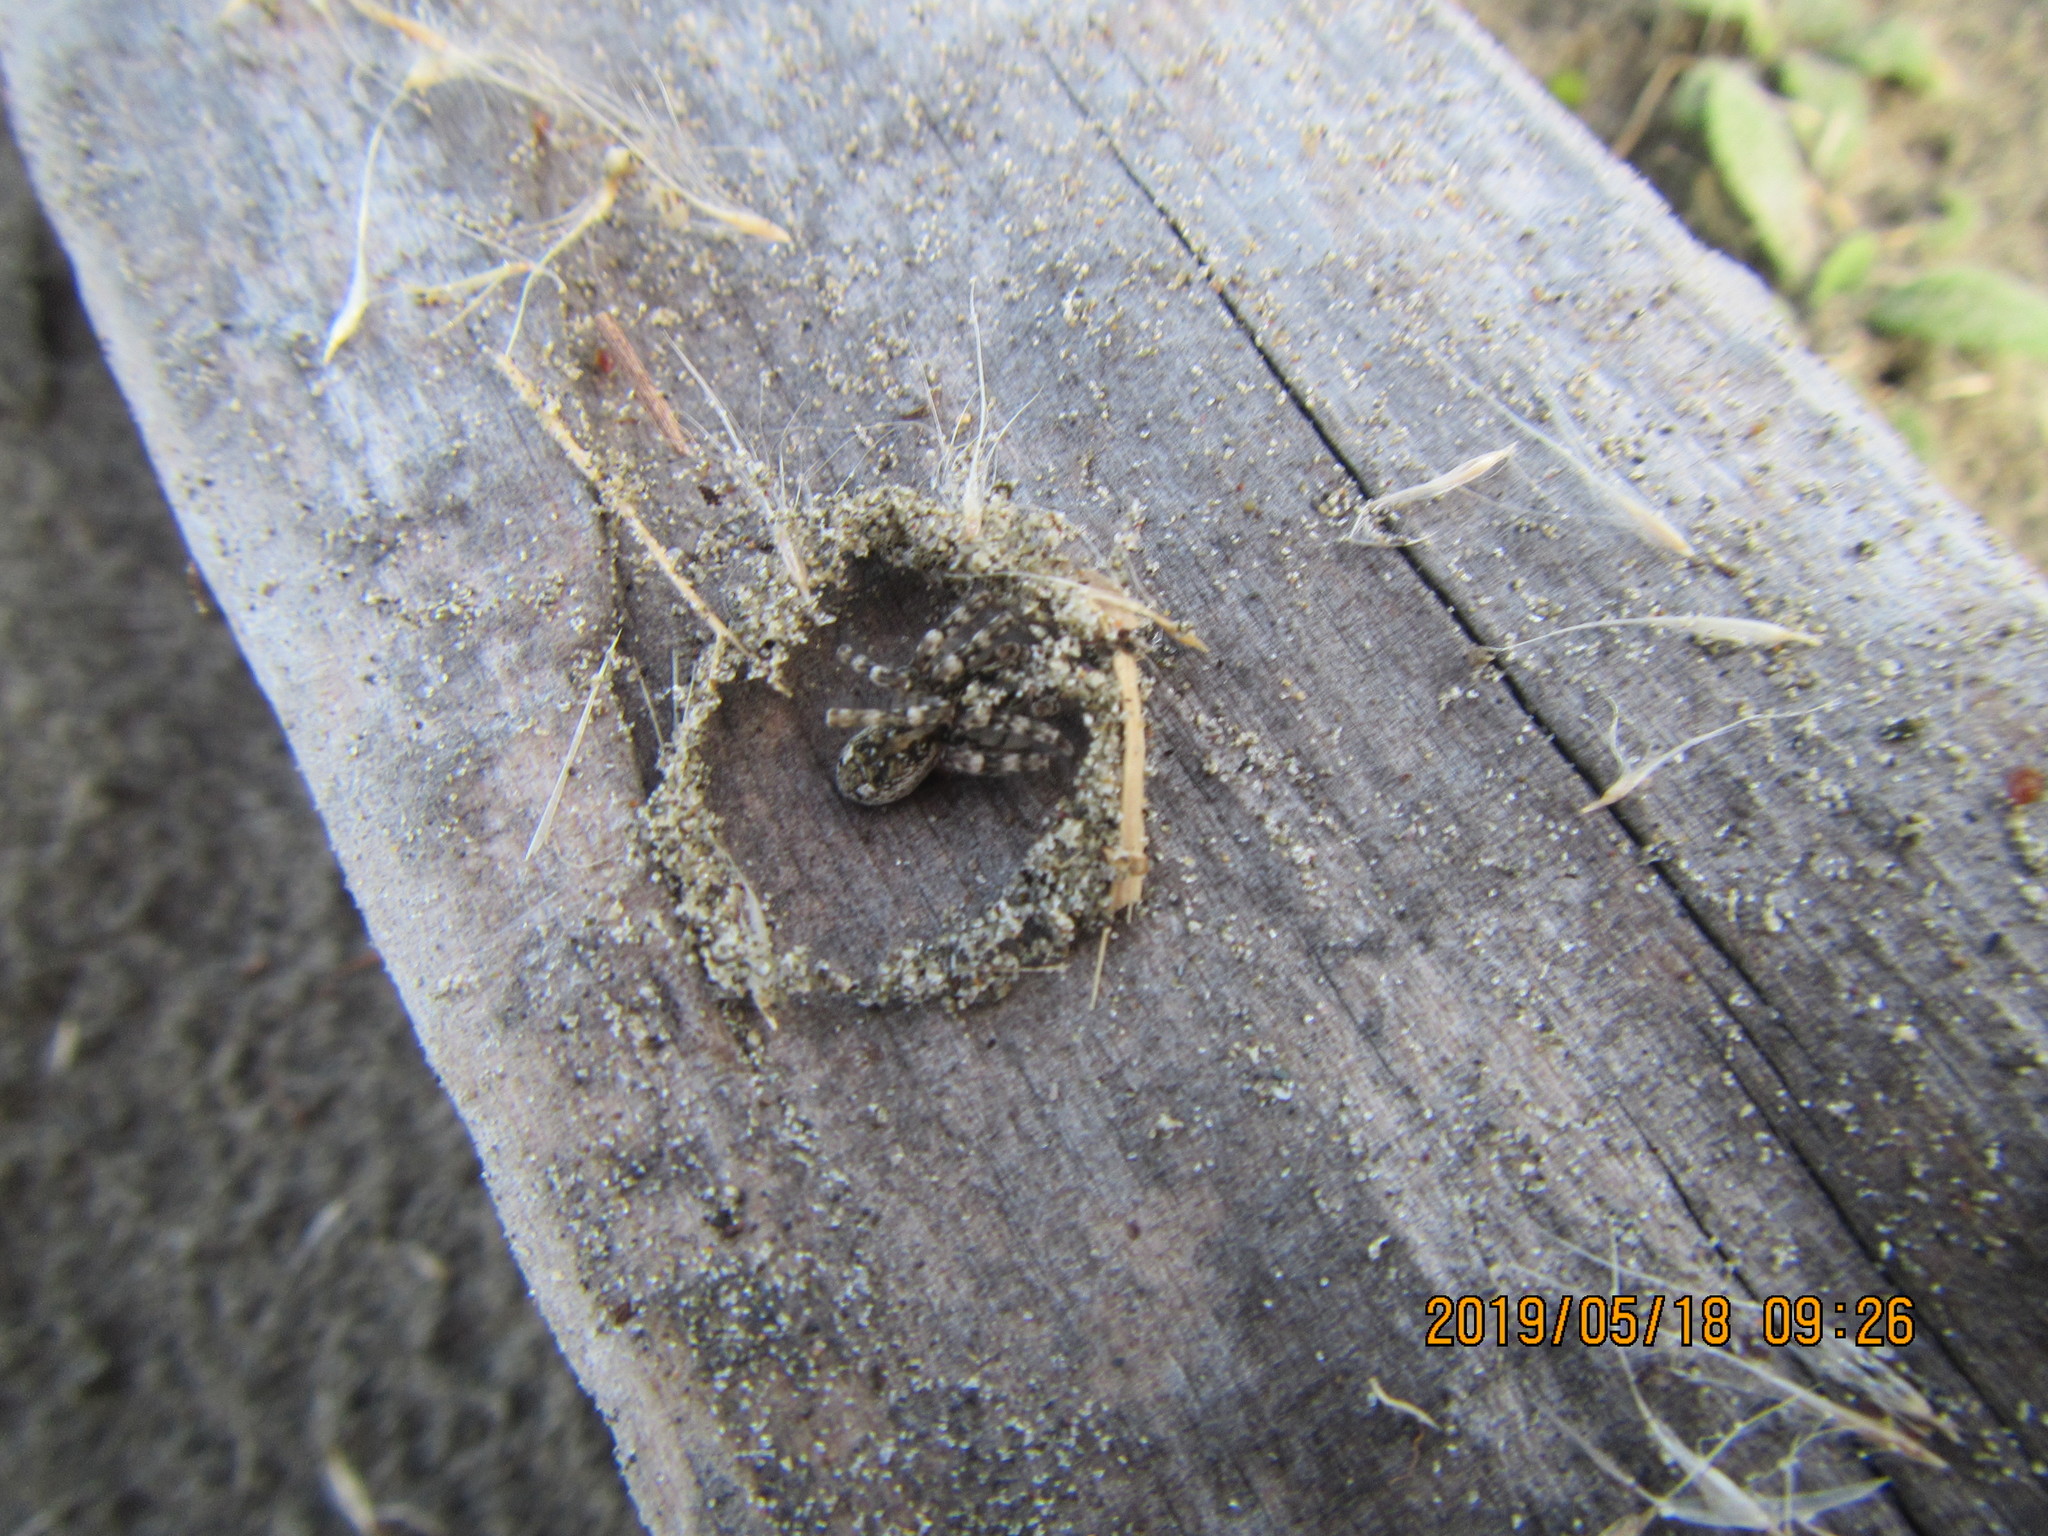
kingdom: Animalia
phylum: Arthropoda
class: Arachnida
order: Araneae
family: Lycosidae
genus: Anoteropsis
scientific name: Anoteropsis litoralis
